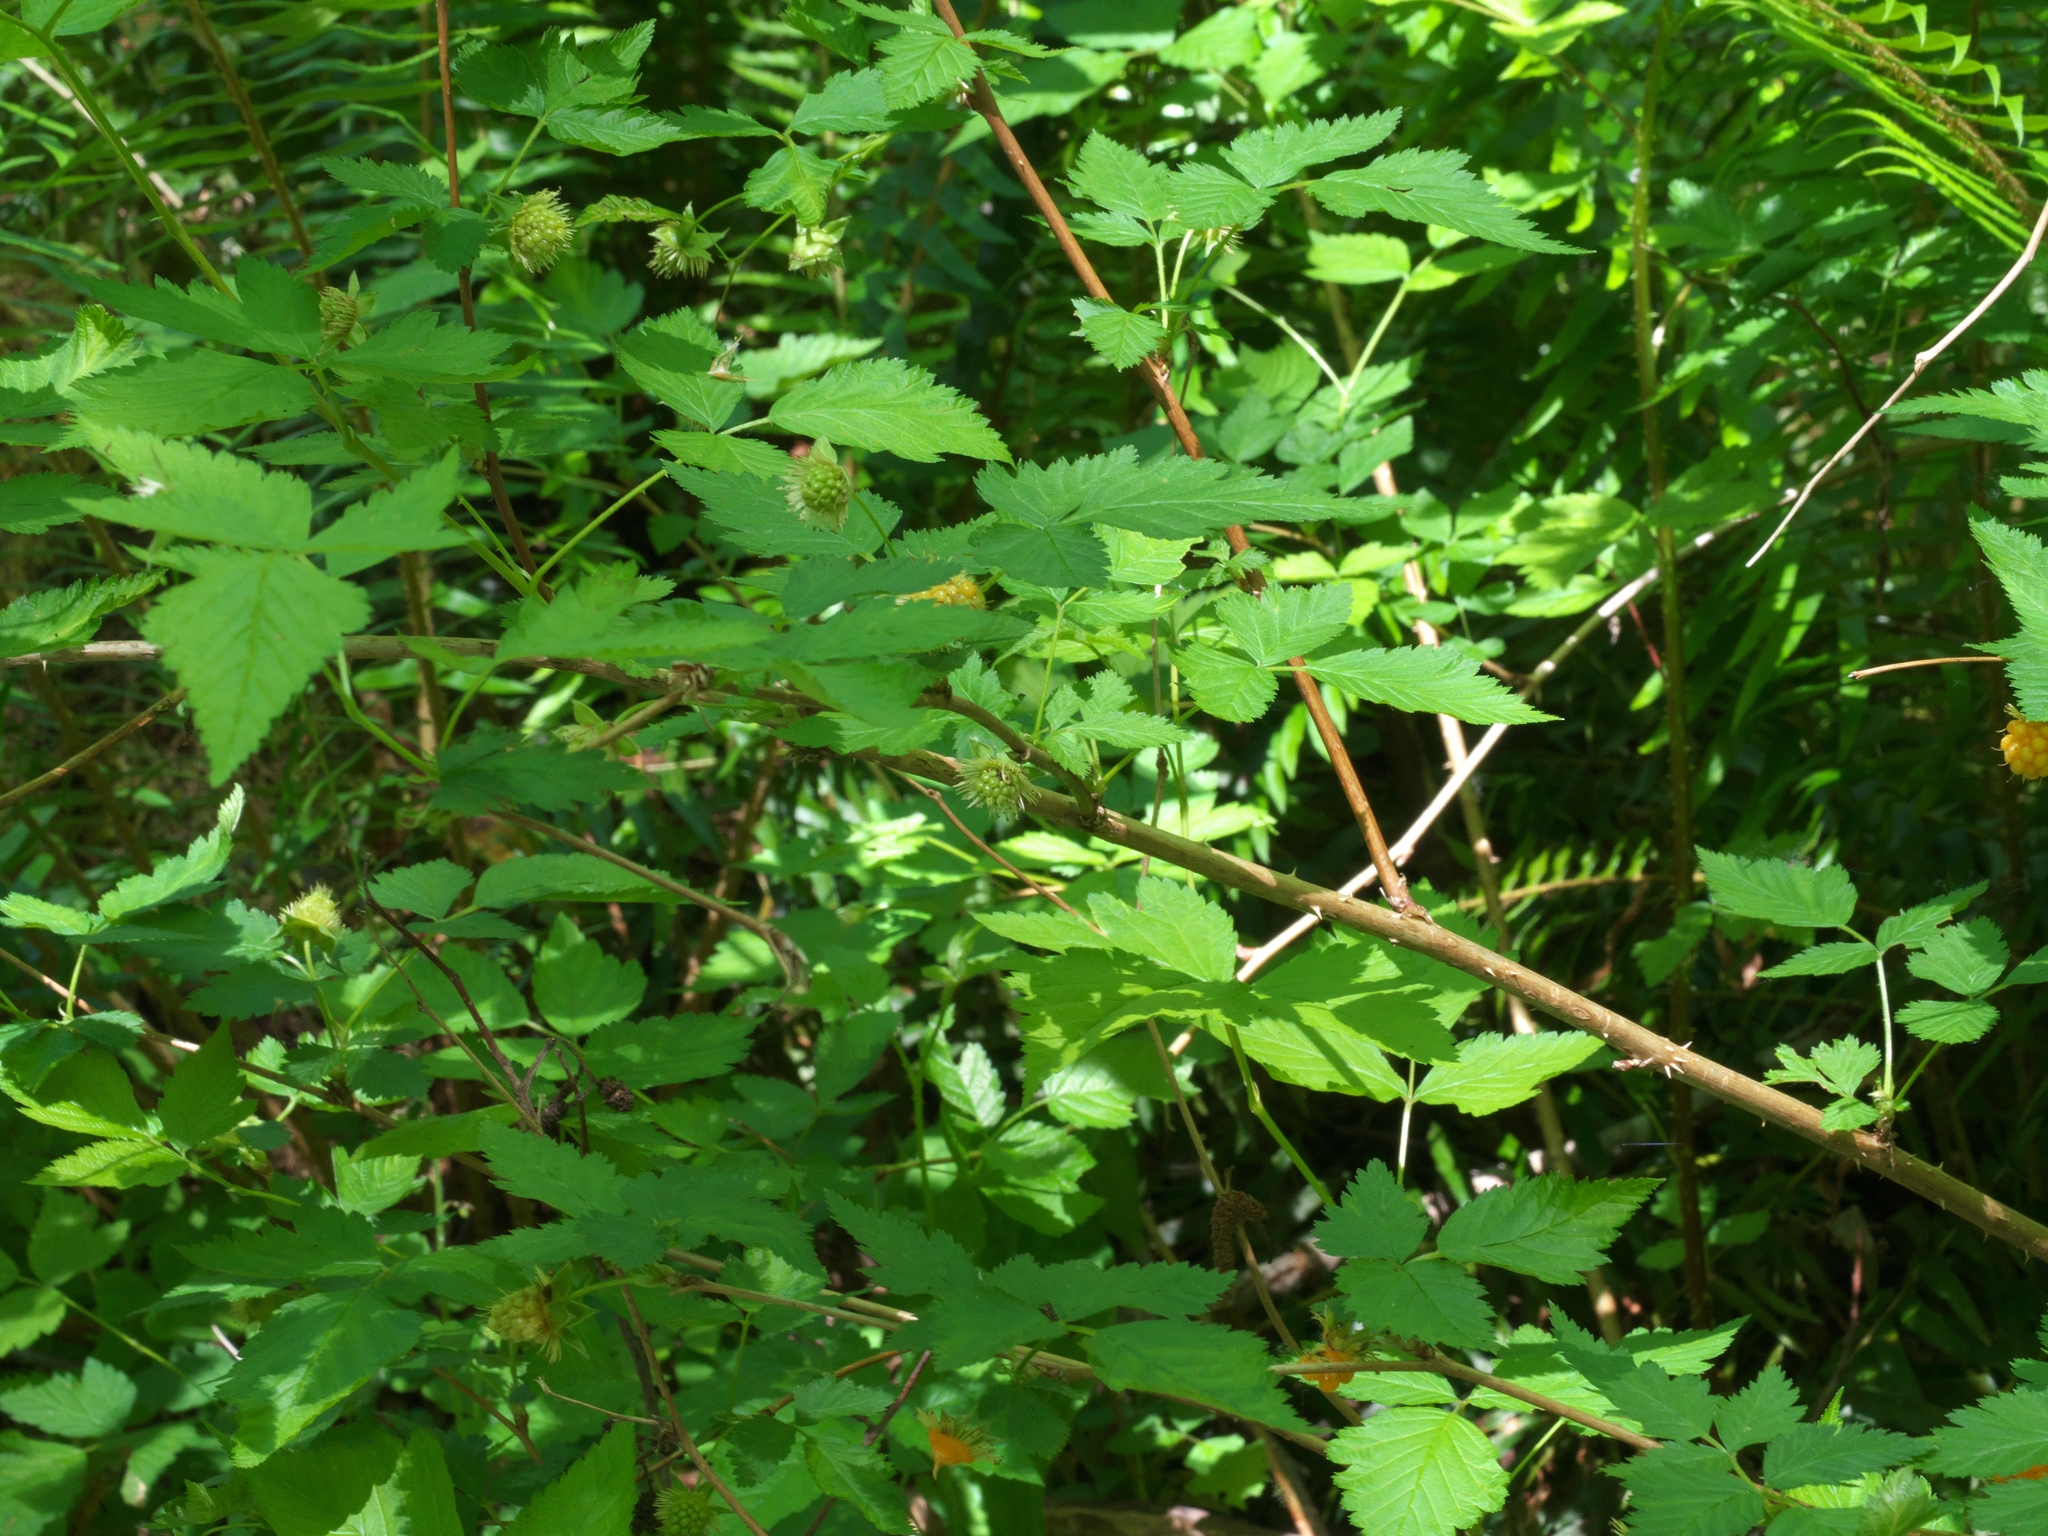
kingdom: Plantae
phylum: Tracheophyta
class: Magnoliopsida
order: Rosales
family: Rosaceae
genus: Rubus
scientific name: Rubus spectabilis
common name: Salmonberry
